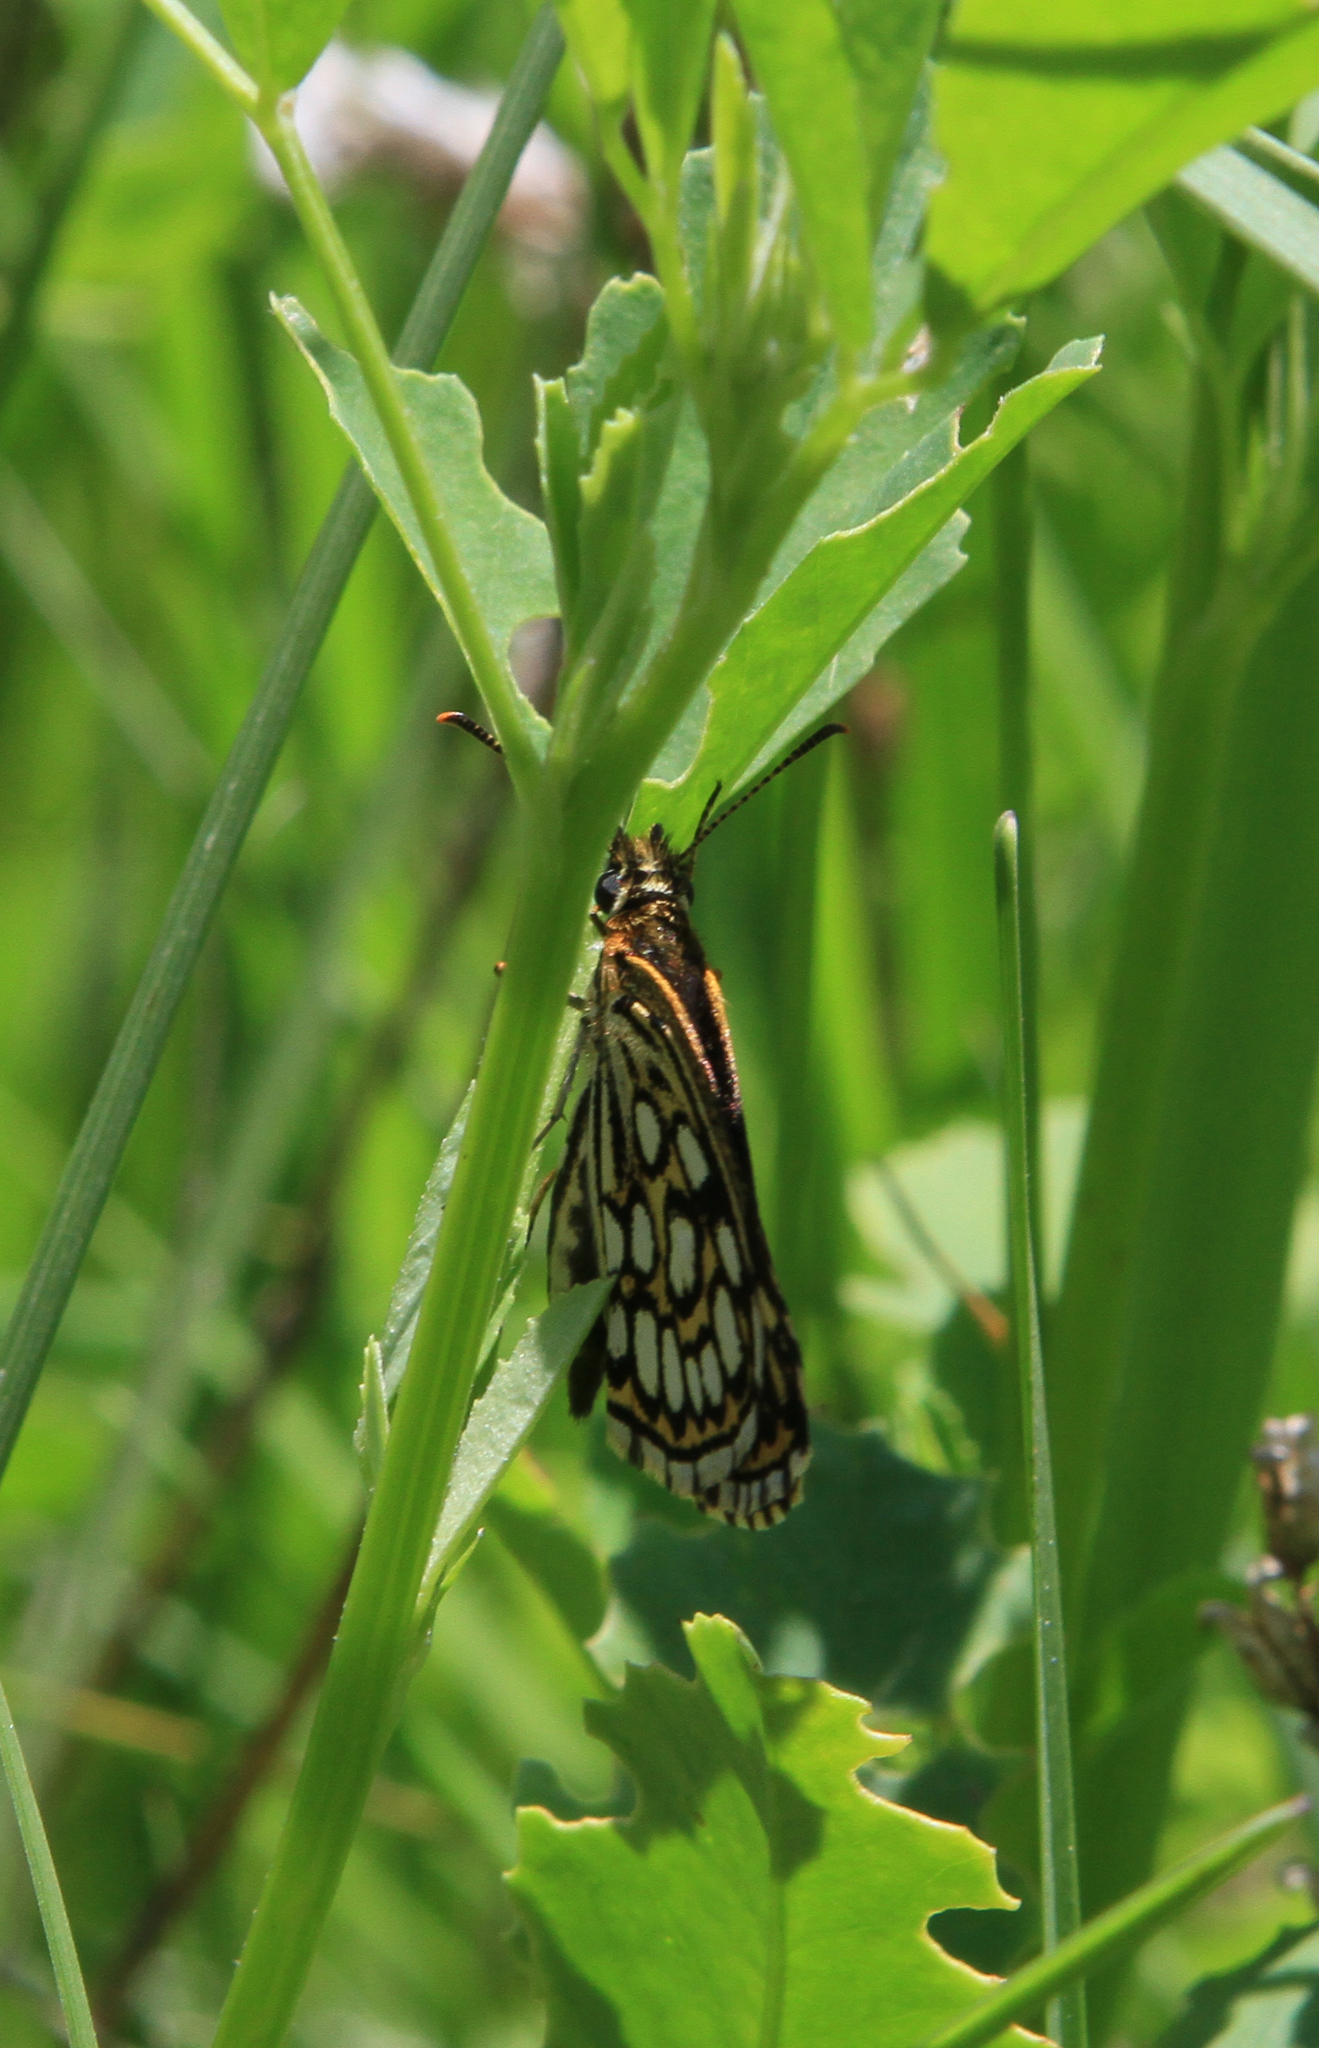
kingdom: Animalia
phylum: Arthropoda
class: Insecta
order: Lepidoptera
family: Hesperiidae
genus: Heteropterus
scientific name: Heteropterus morpheus
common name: Large chequered skipper
